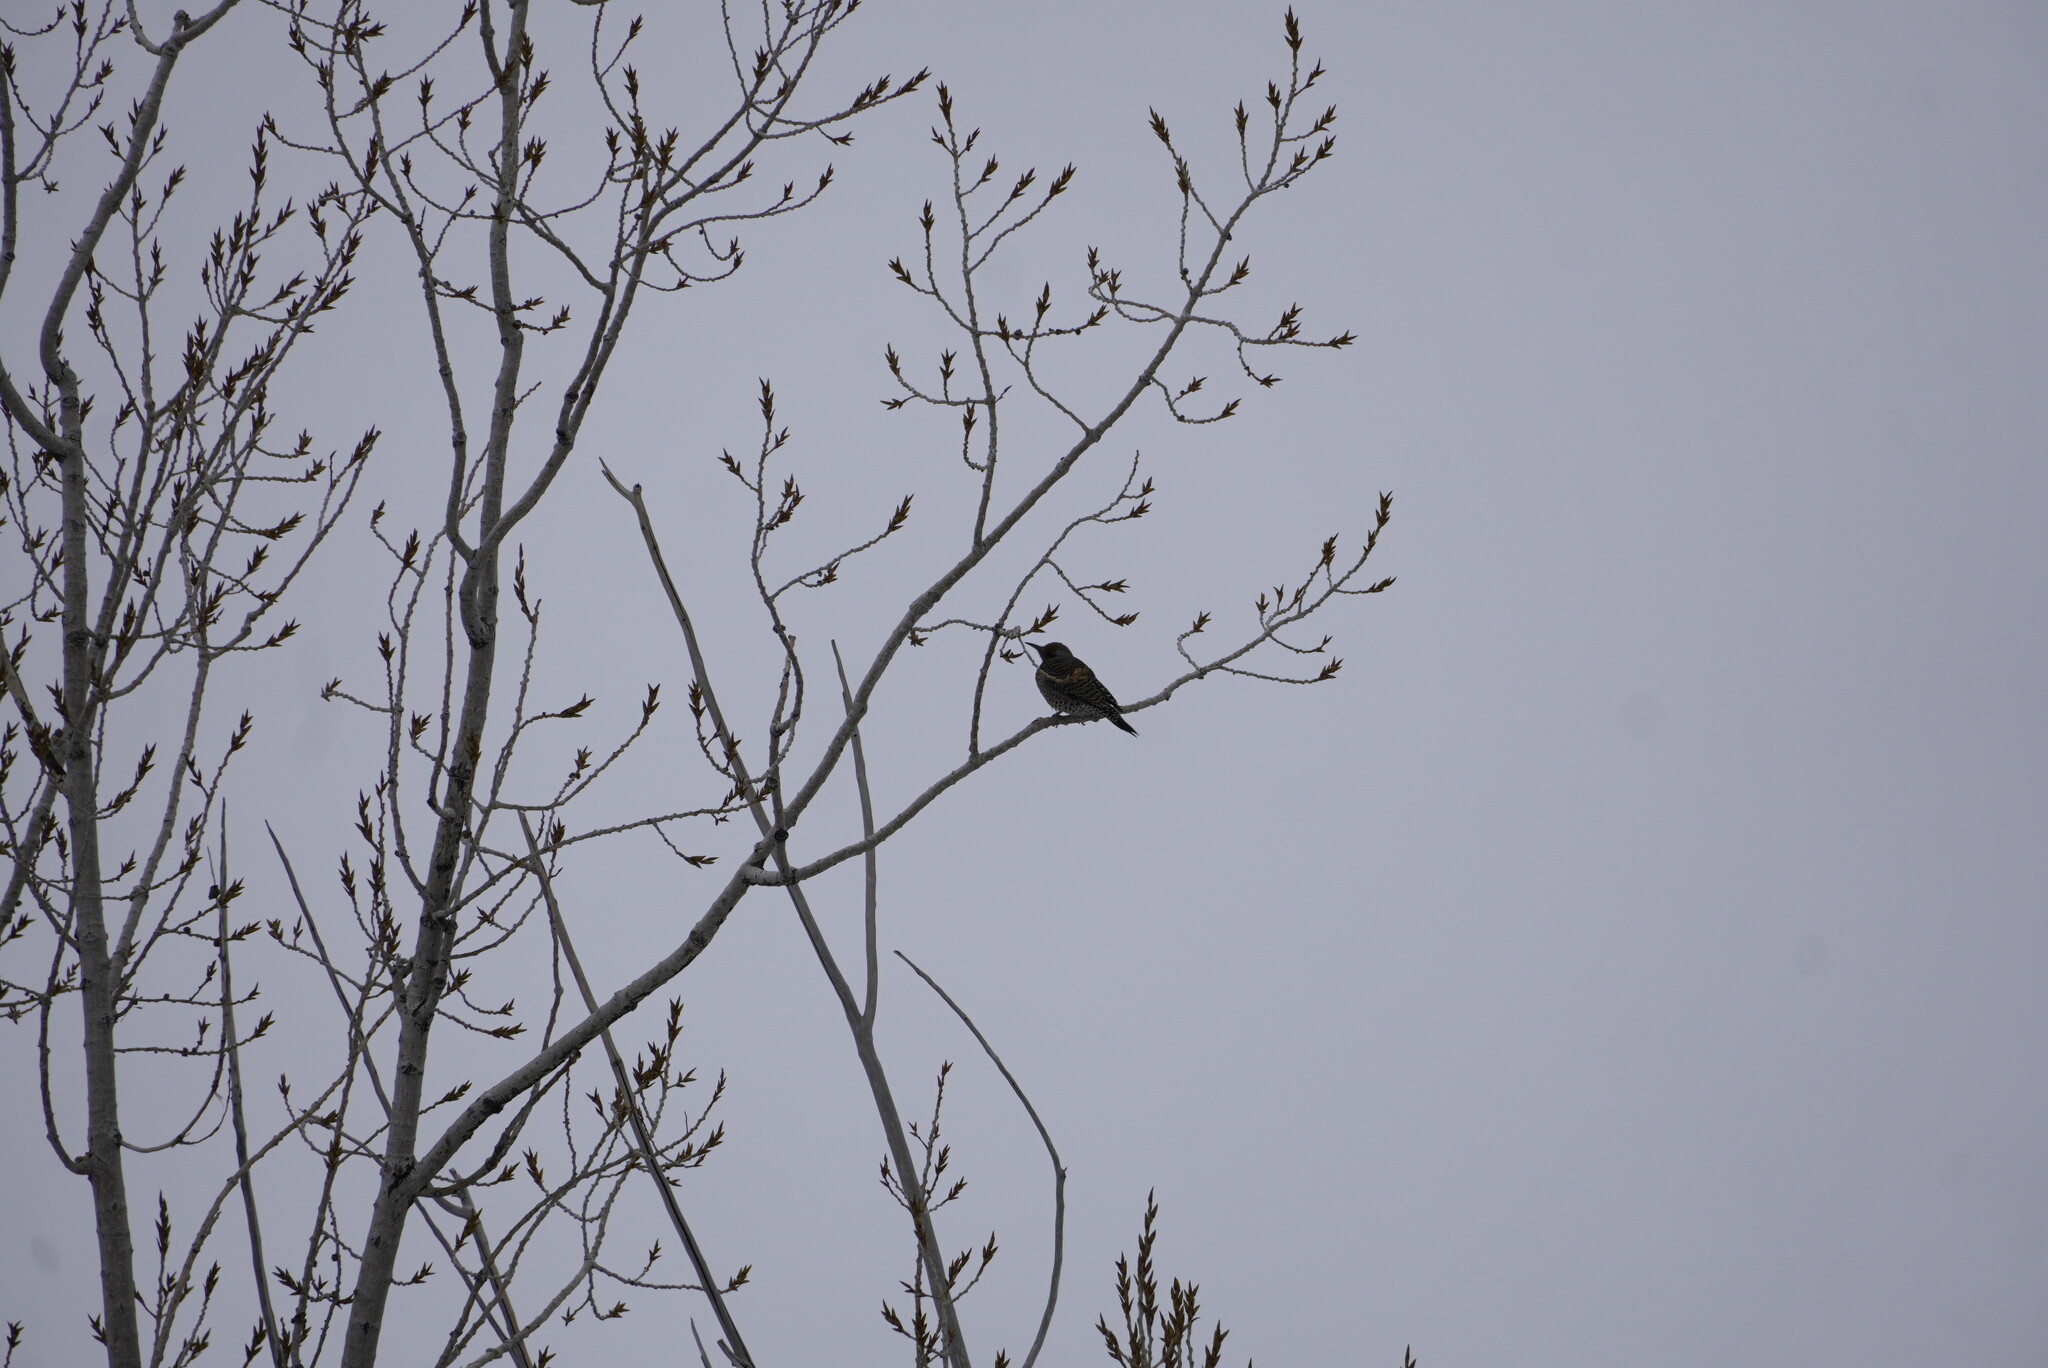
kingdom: Animalia
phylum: Chordata
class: Aves
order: Piciformes
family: Picidae
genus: Colaptes
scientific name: Colaptes auratus
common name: Northern flicker
